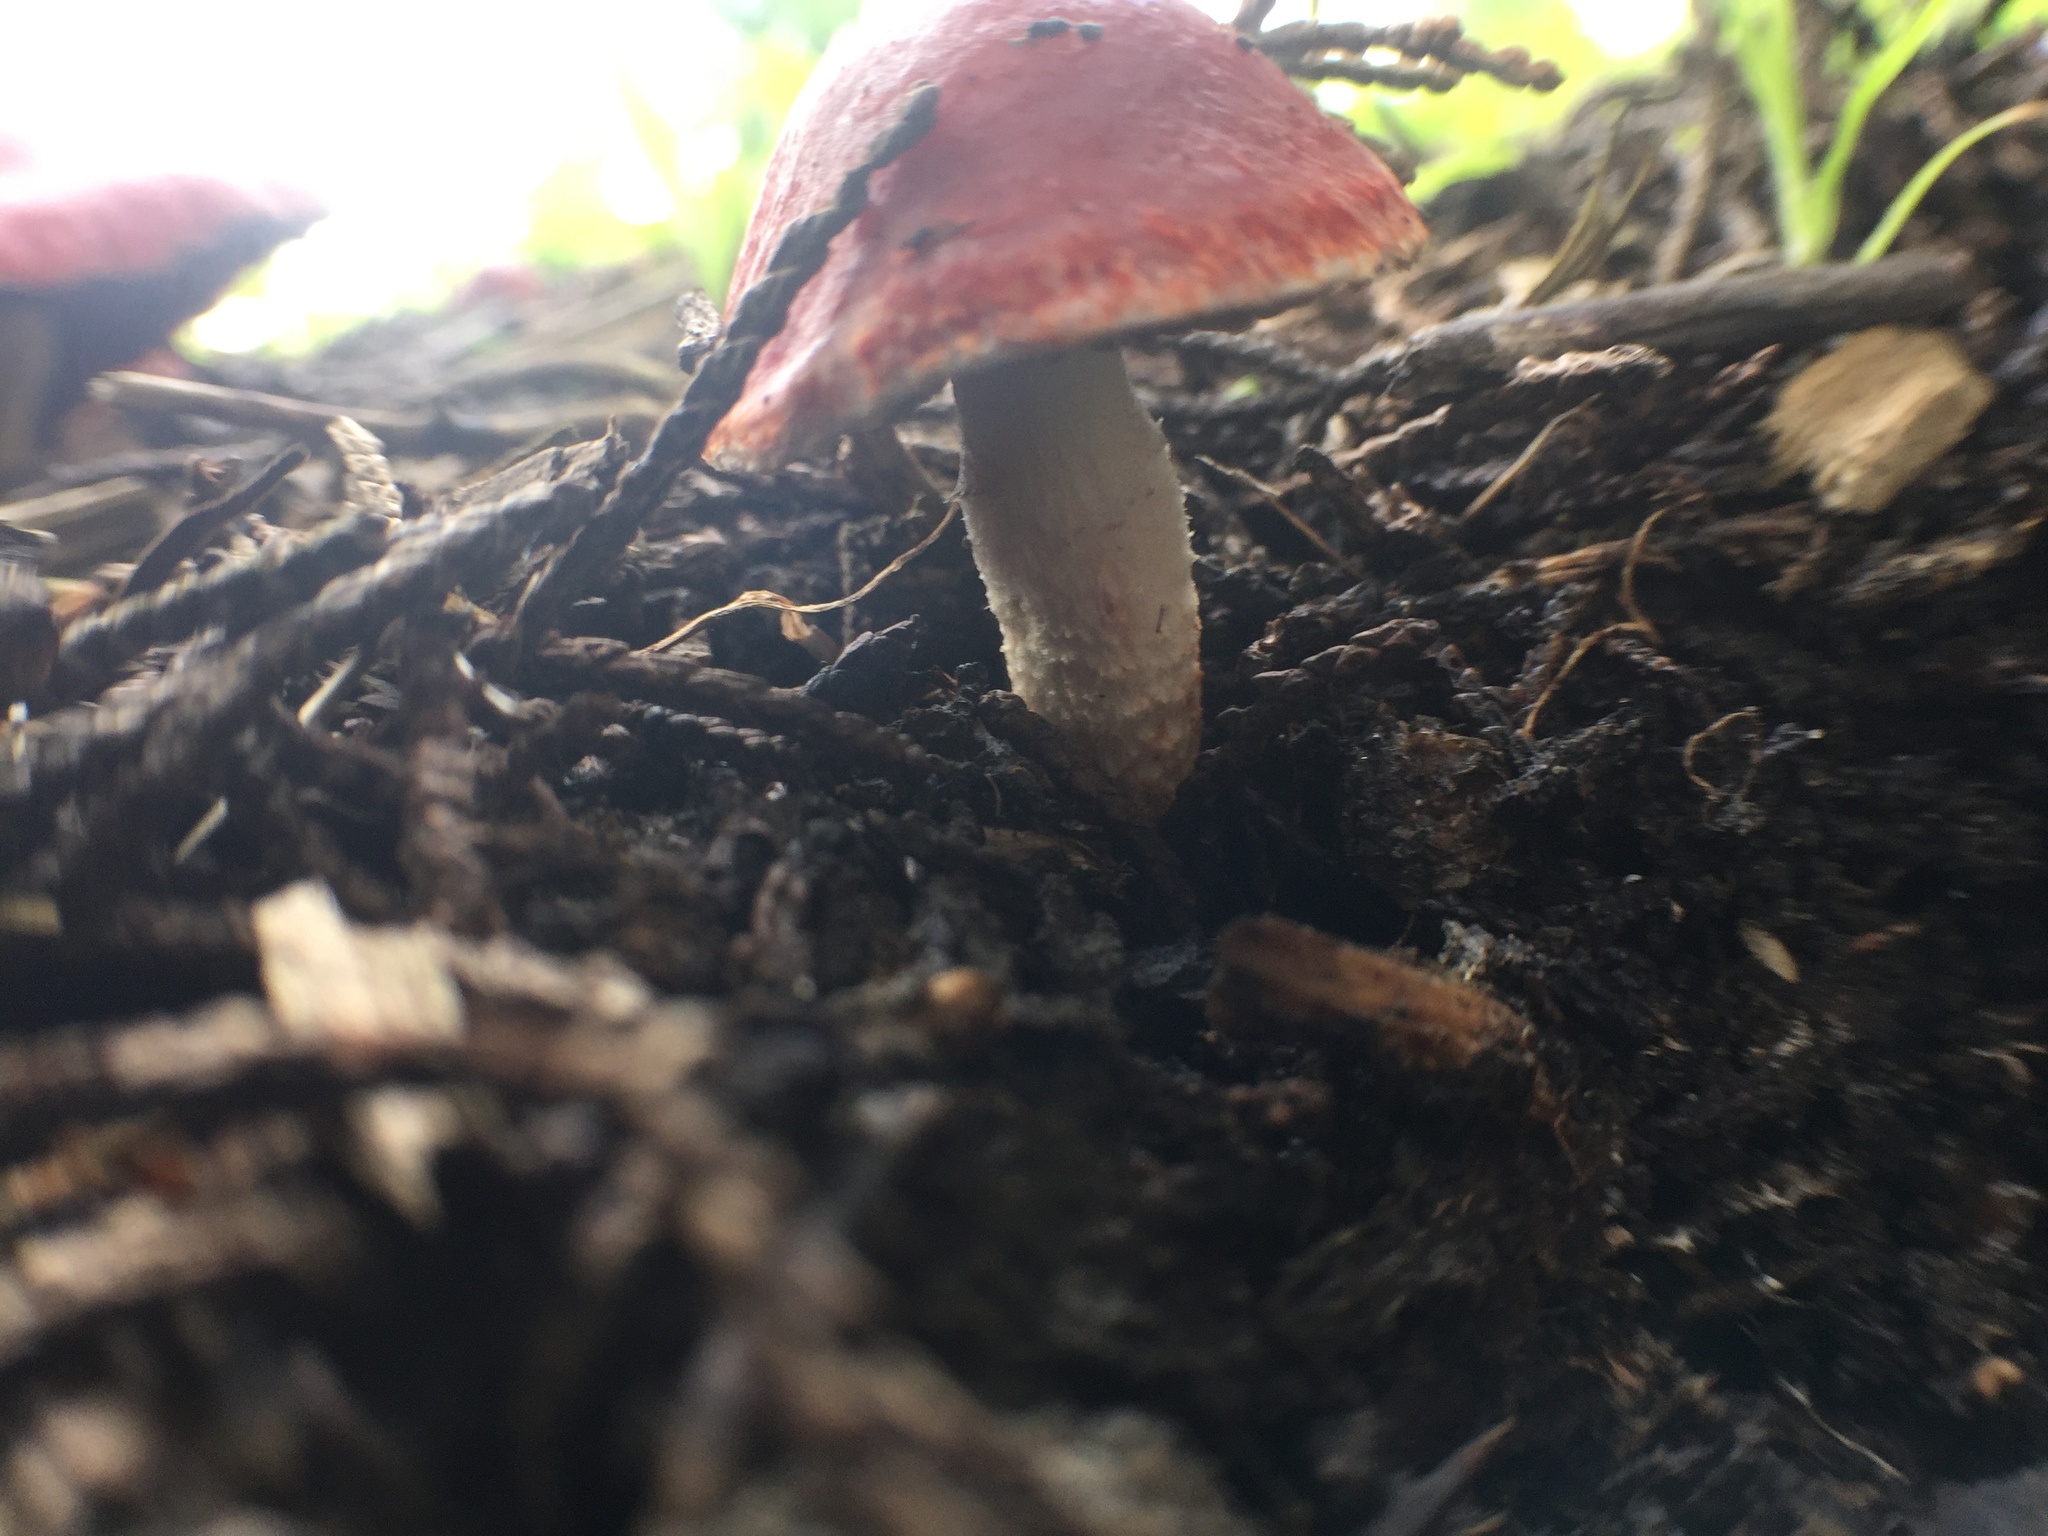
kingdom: Fungi
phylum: Basidiomycota
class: Agaricomycetes
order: Agaricales
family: Strophariaceae
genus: Leratiomyces
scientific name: Leratiomyces ceres
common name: Redlead roundhead
